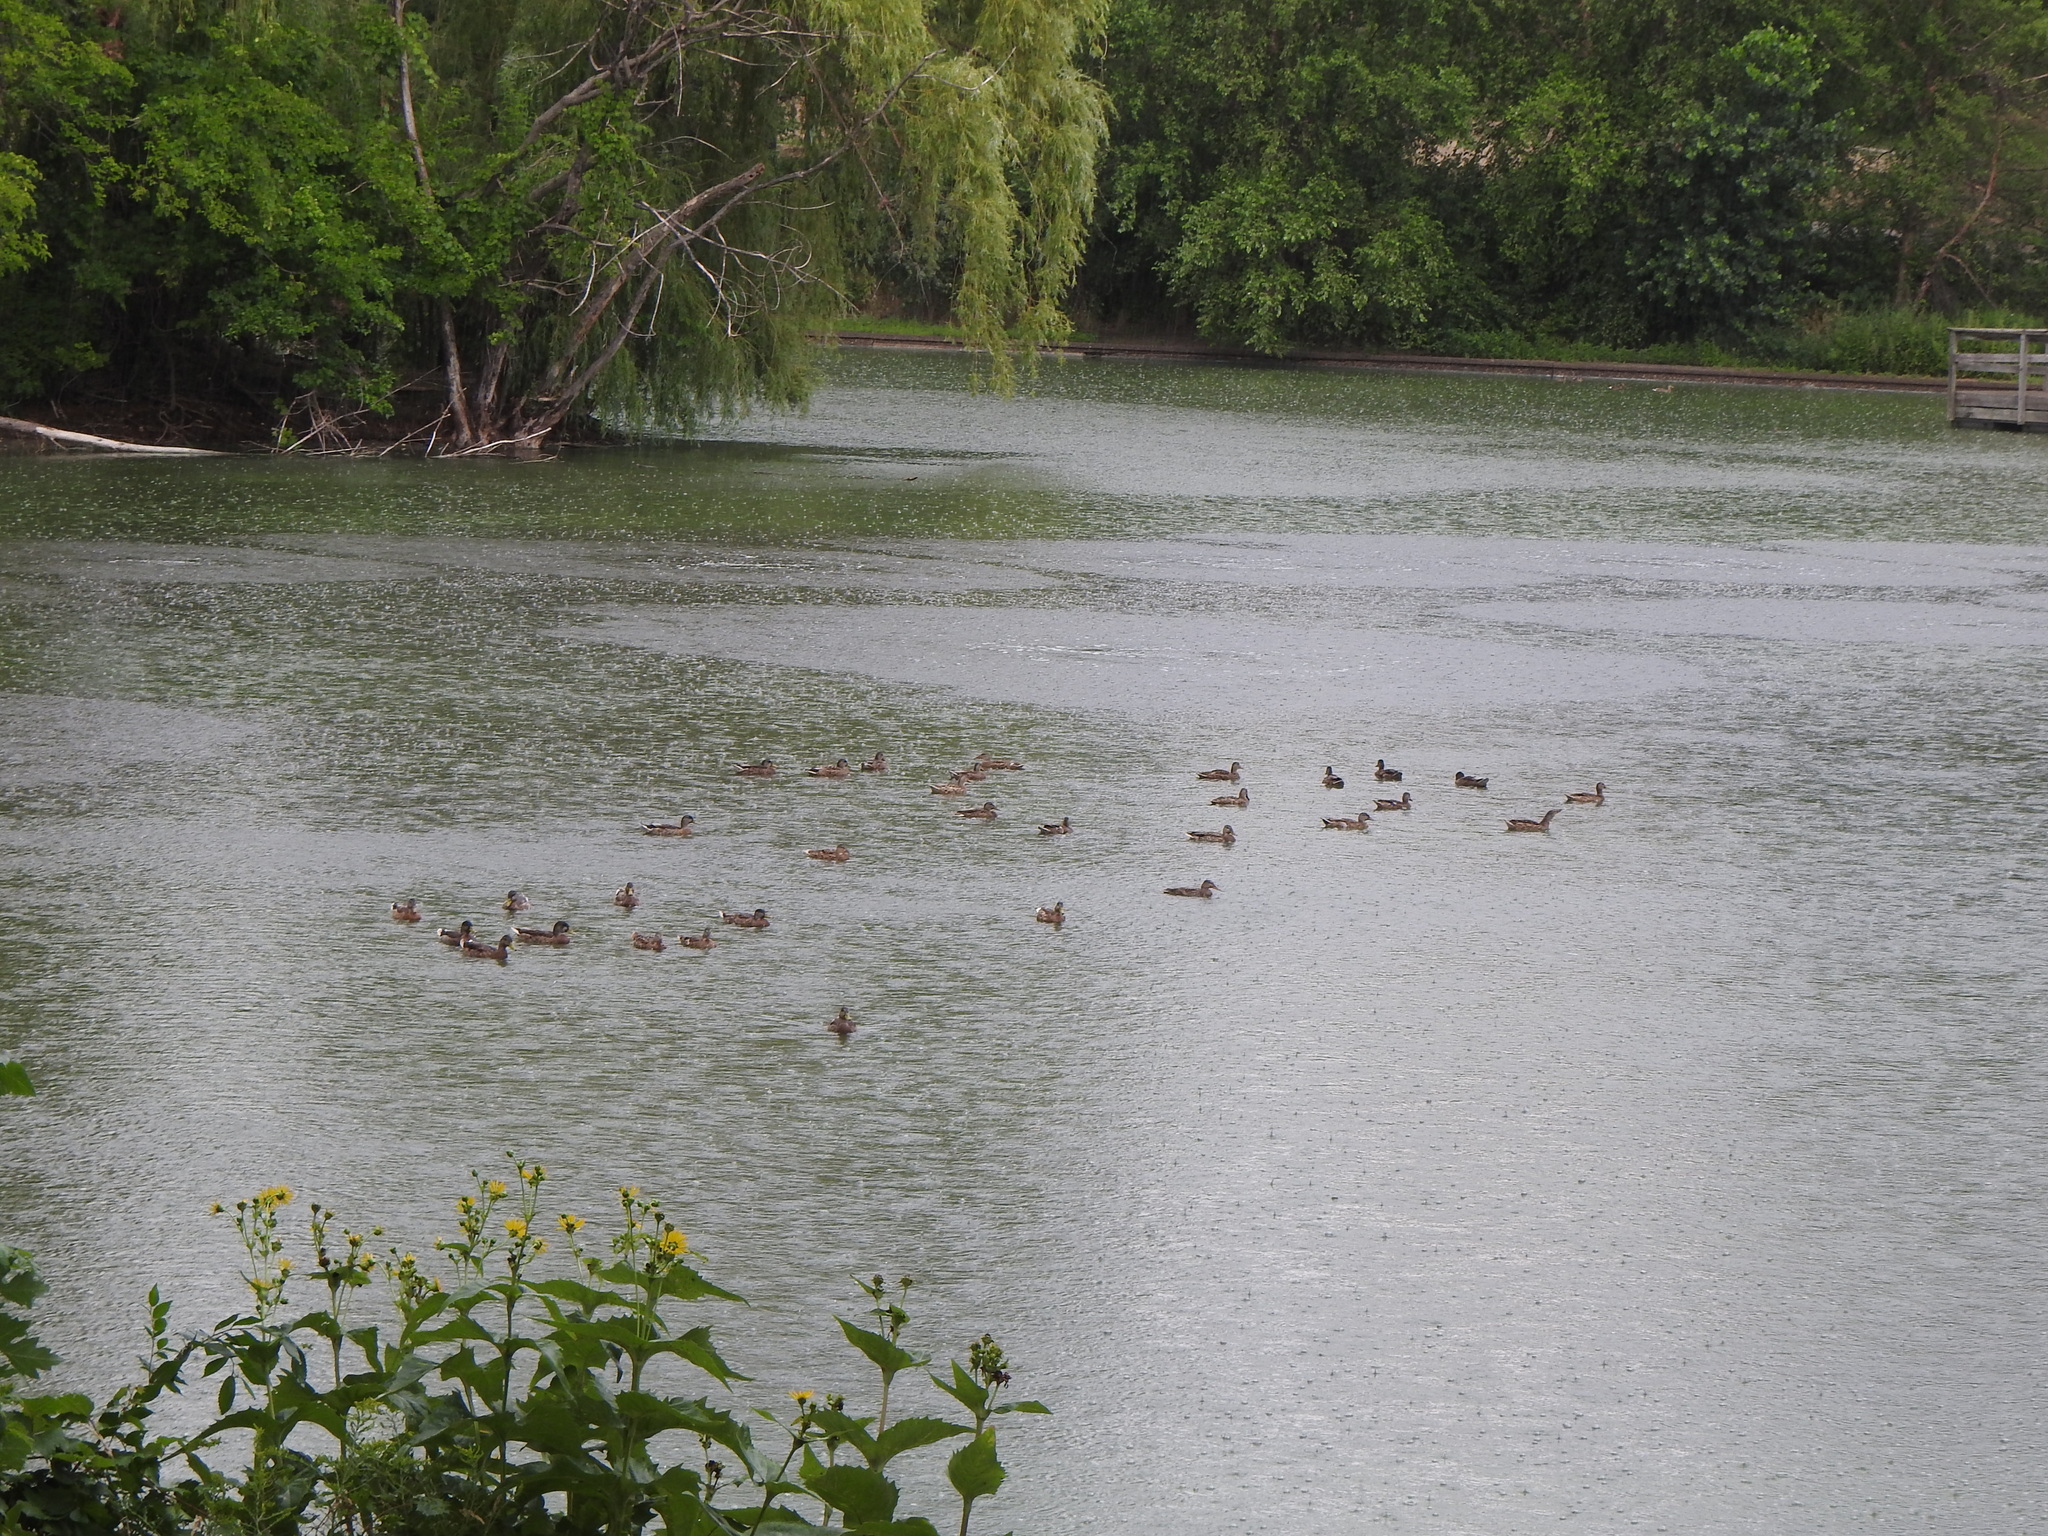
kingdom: Animalia
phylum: Chordata
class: Aves
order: Anseriformes
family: Anatidae
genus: Anas
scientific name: Anas platyrhynchos
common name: Mallard
